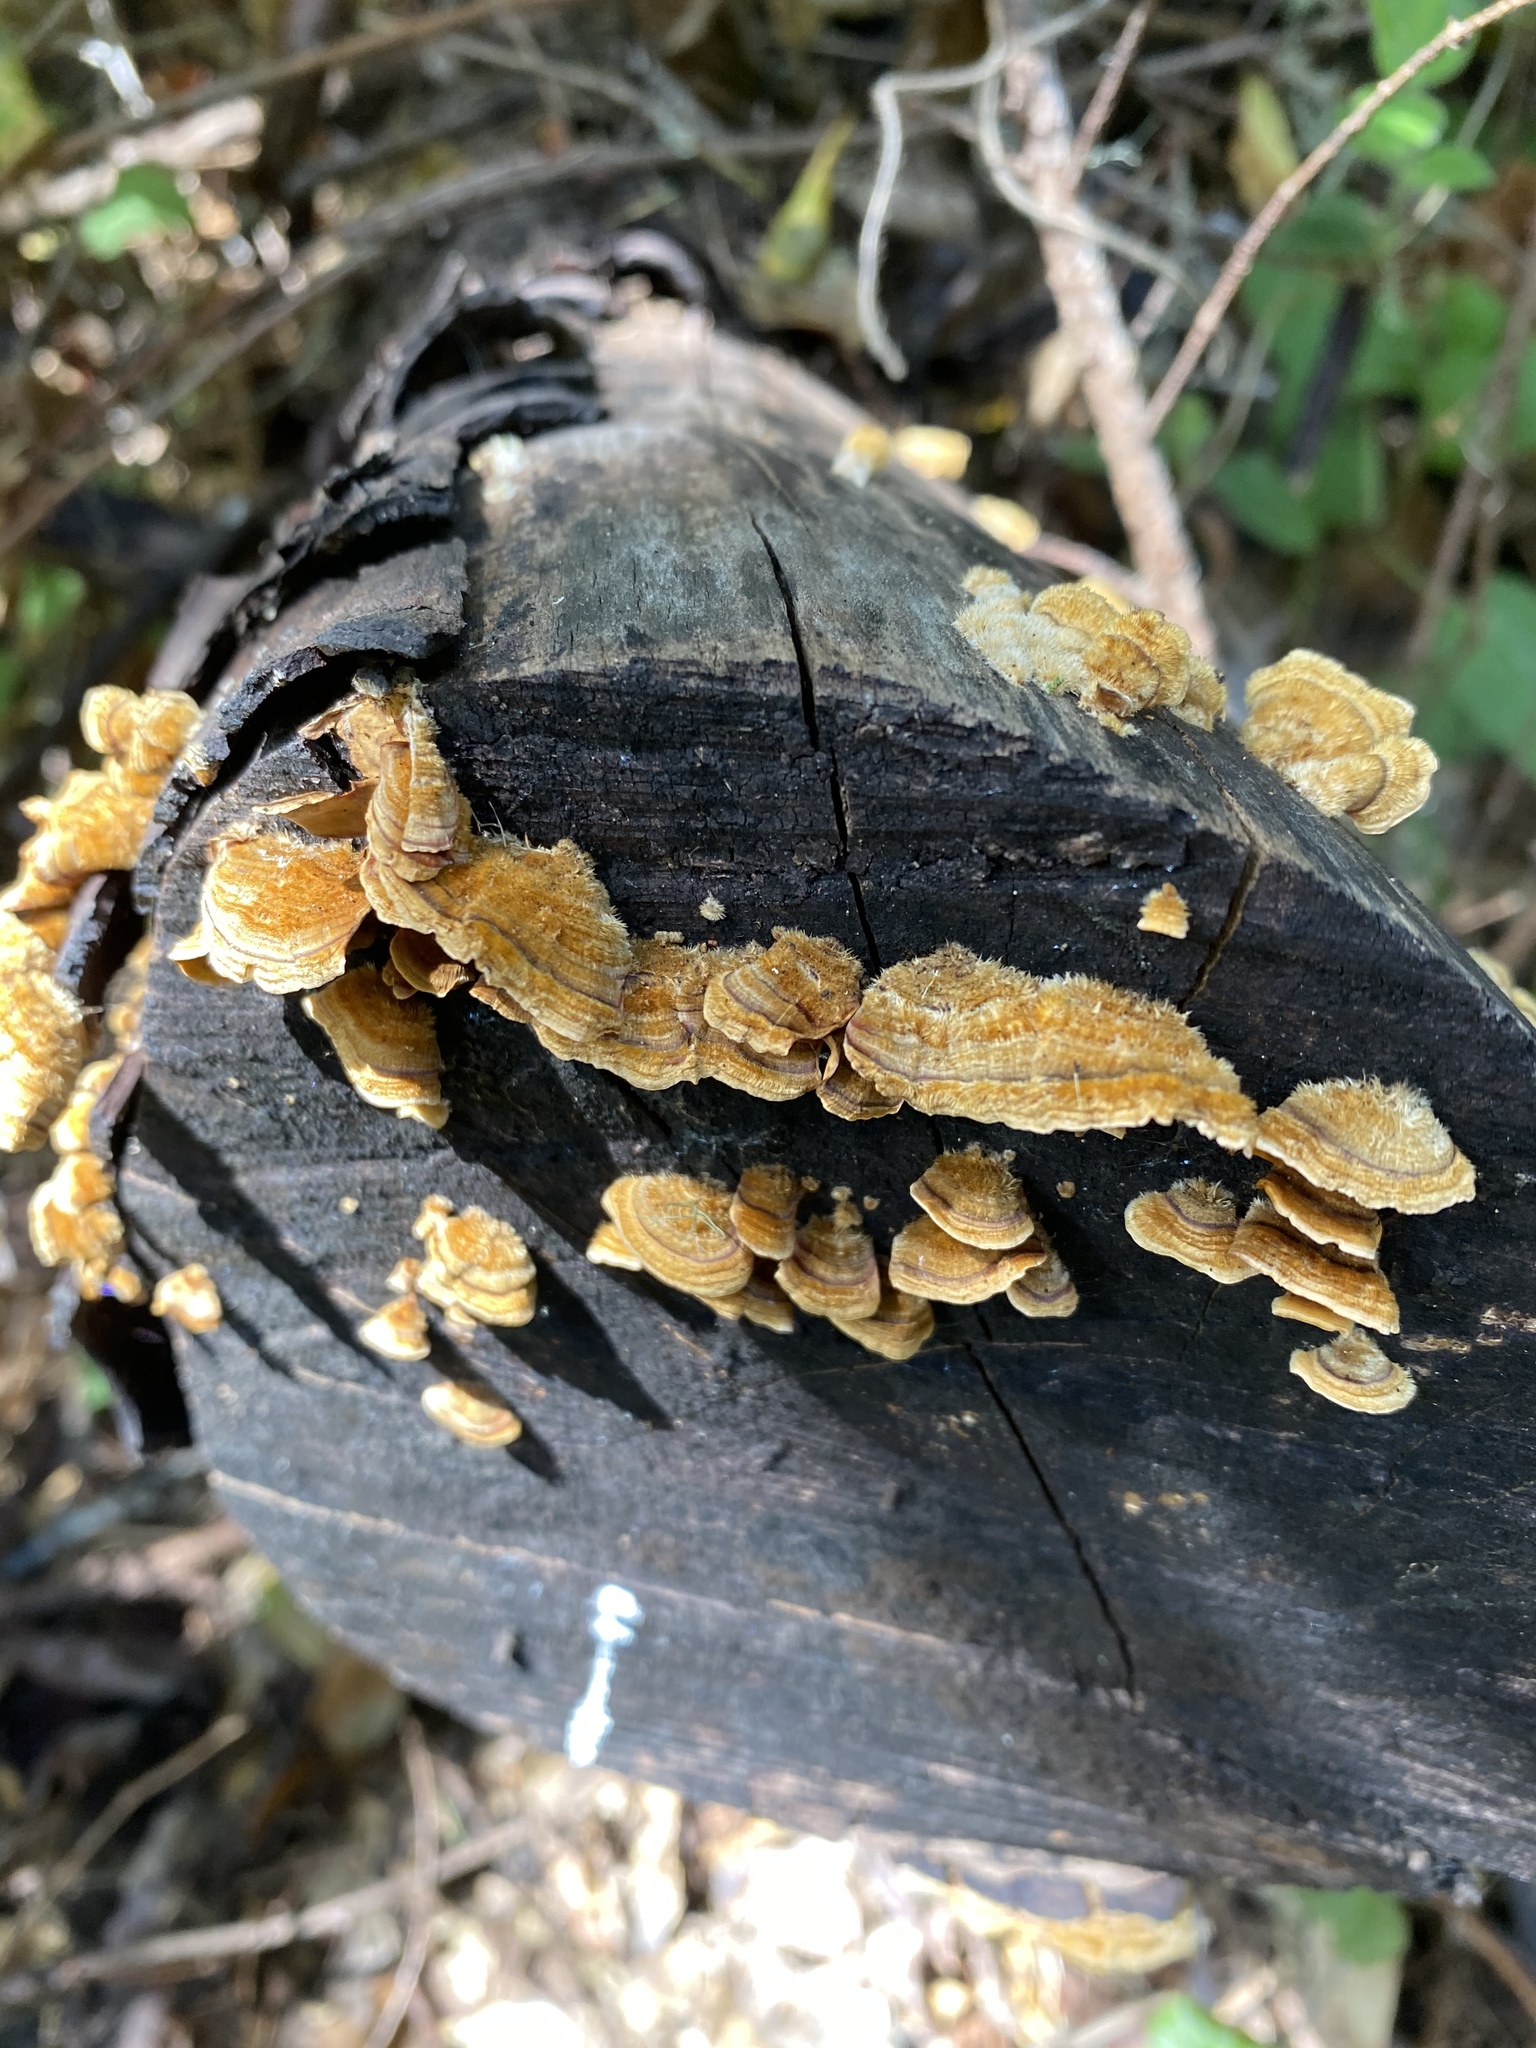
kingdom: Fungi
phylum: Basidiomycota
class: Agaricomycetes
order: Russulales
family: Stereaceae
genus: Stereum
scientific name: Stereum hirsutum
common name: Hairy curtain crust
